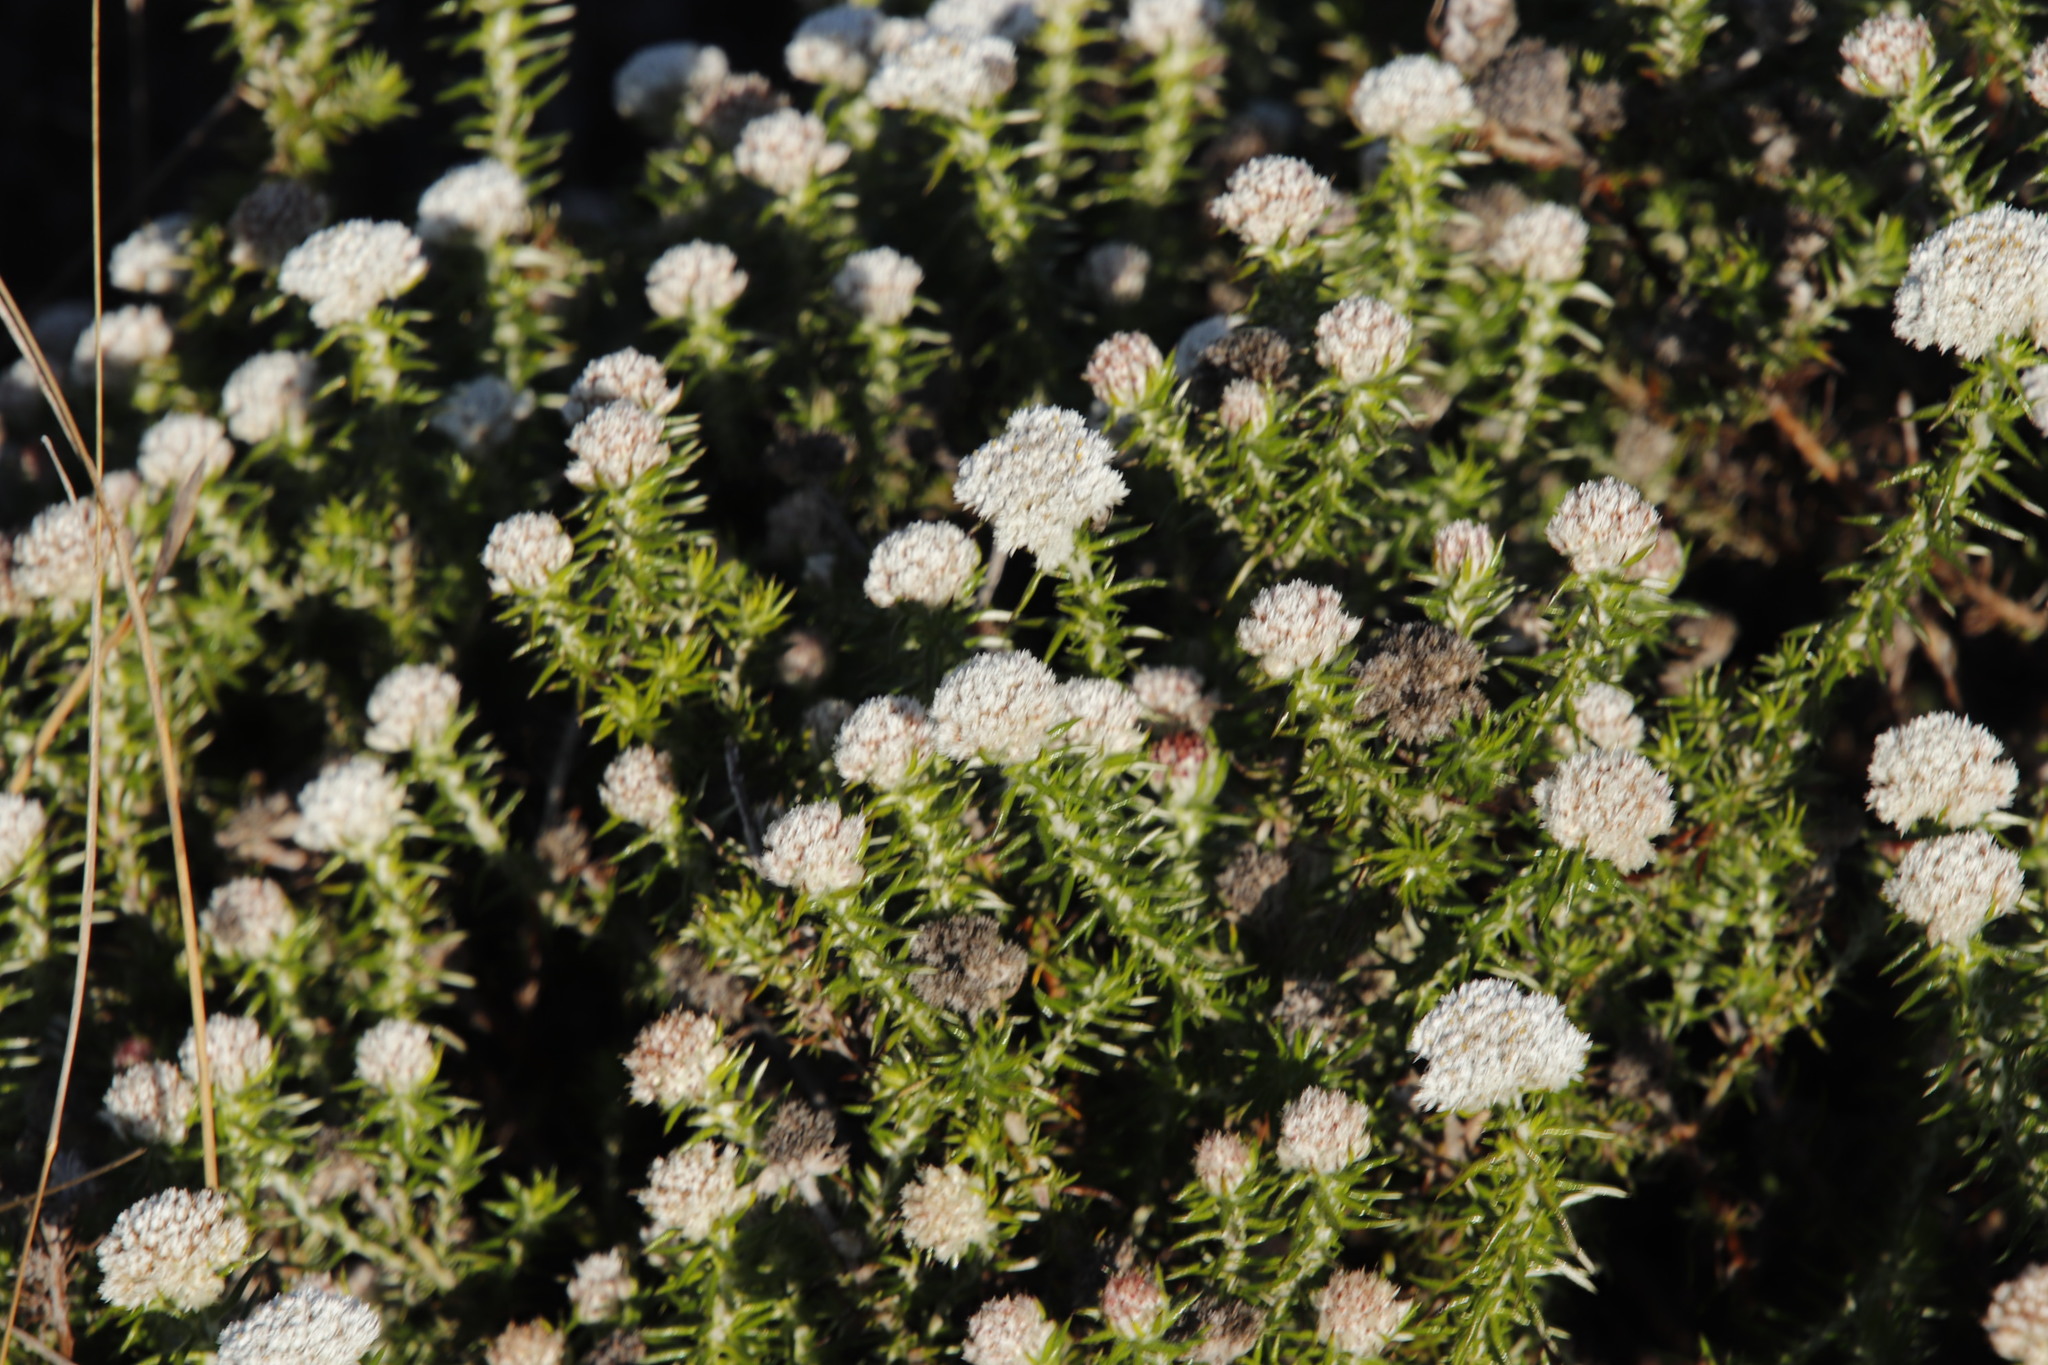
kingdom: Plantae
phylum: Tracheophyta
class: Magnoliopsida
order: Asterales
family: Asteraceae
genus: Metalasia
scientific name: Metalasia pulchella
